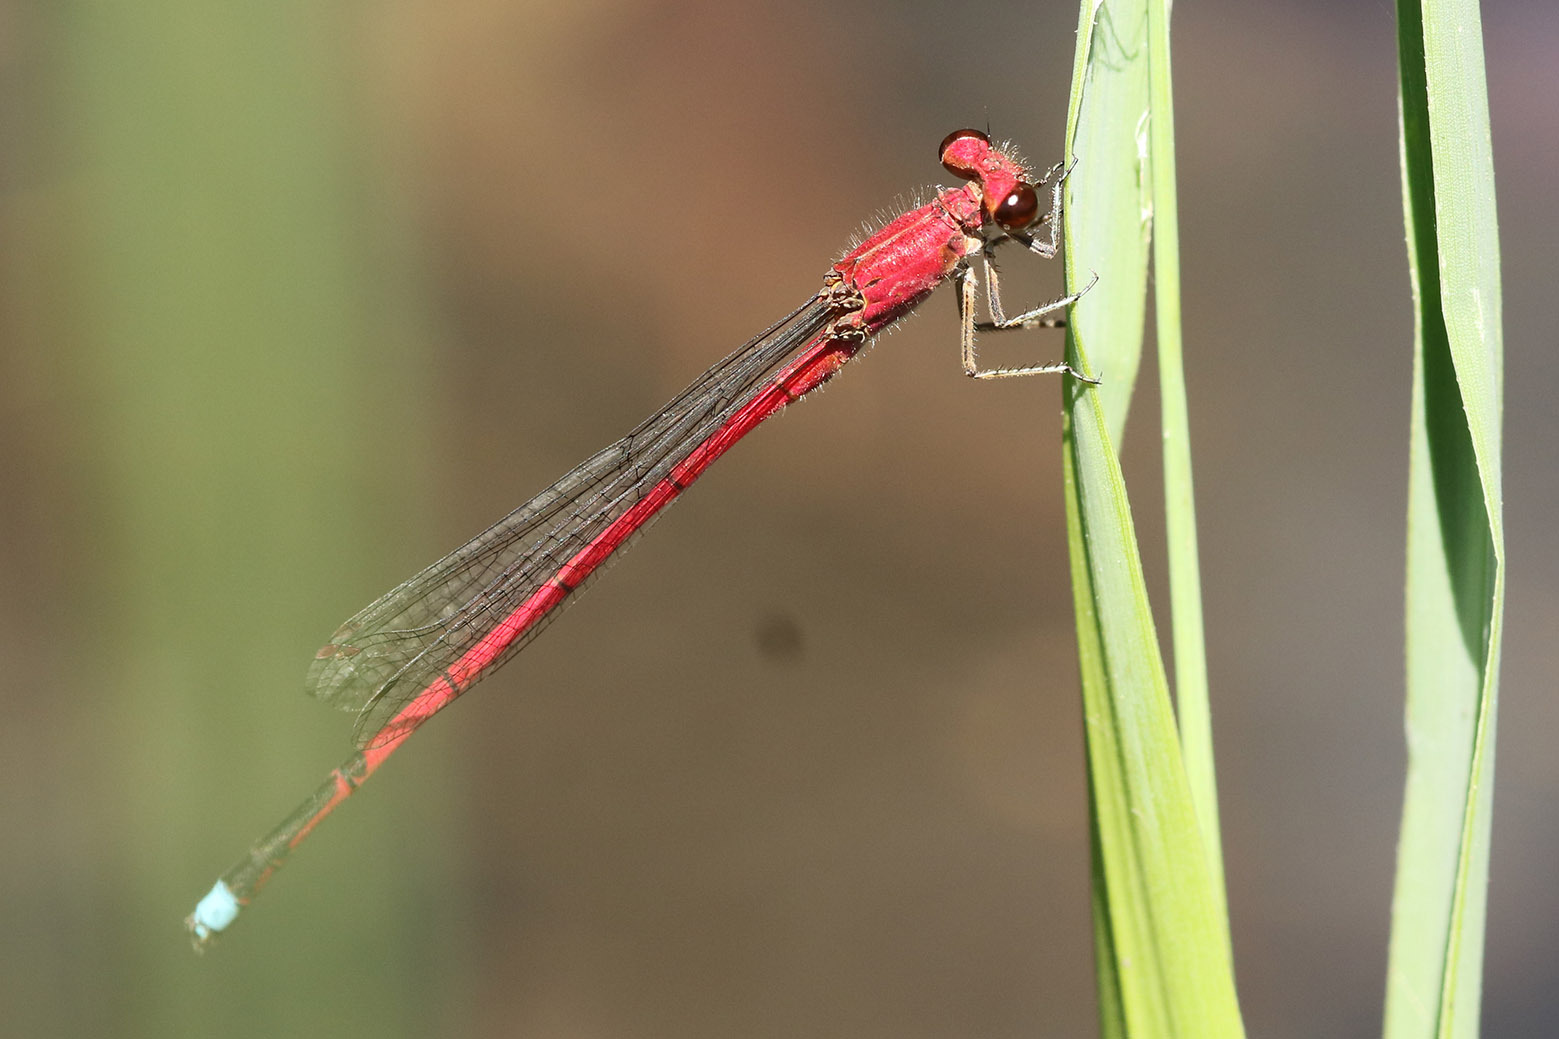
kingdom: Animalia
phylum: Arthropoda
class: Insecta
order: Odonata
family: Coenagrionidae
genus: Oxyagrion
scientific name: Oxyagrion terminale
